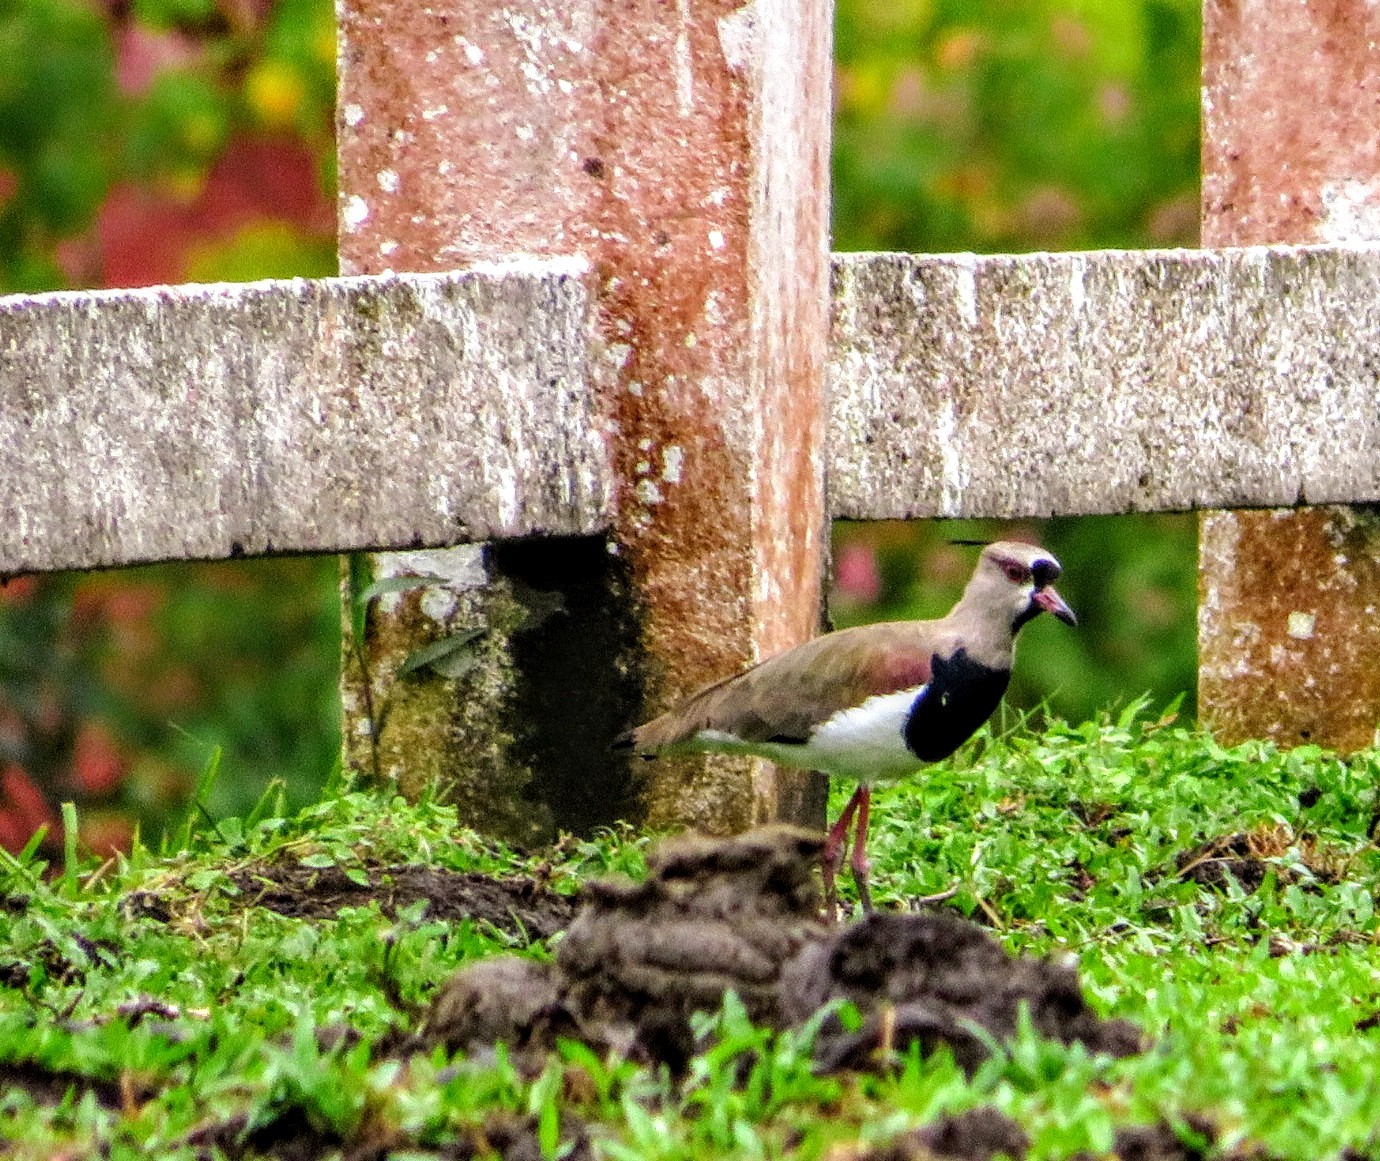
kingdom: Animalia
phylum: Chordata
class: Aves
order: Charadriiformes
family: Charadriidae
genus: Vanellus
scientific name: Vanellus chilensis
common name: Southern lapwing
